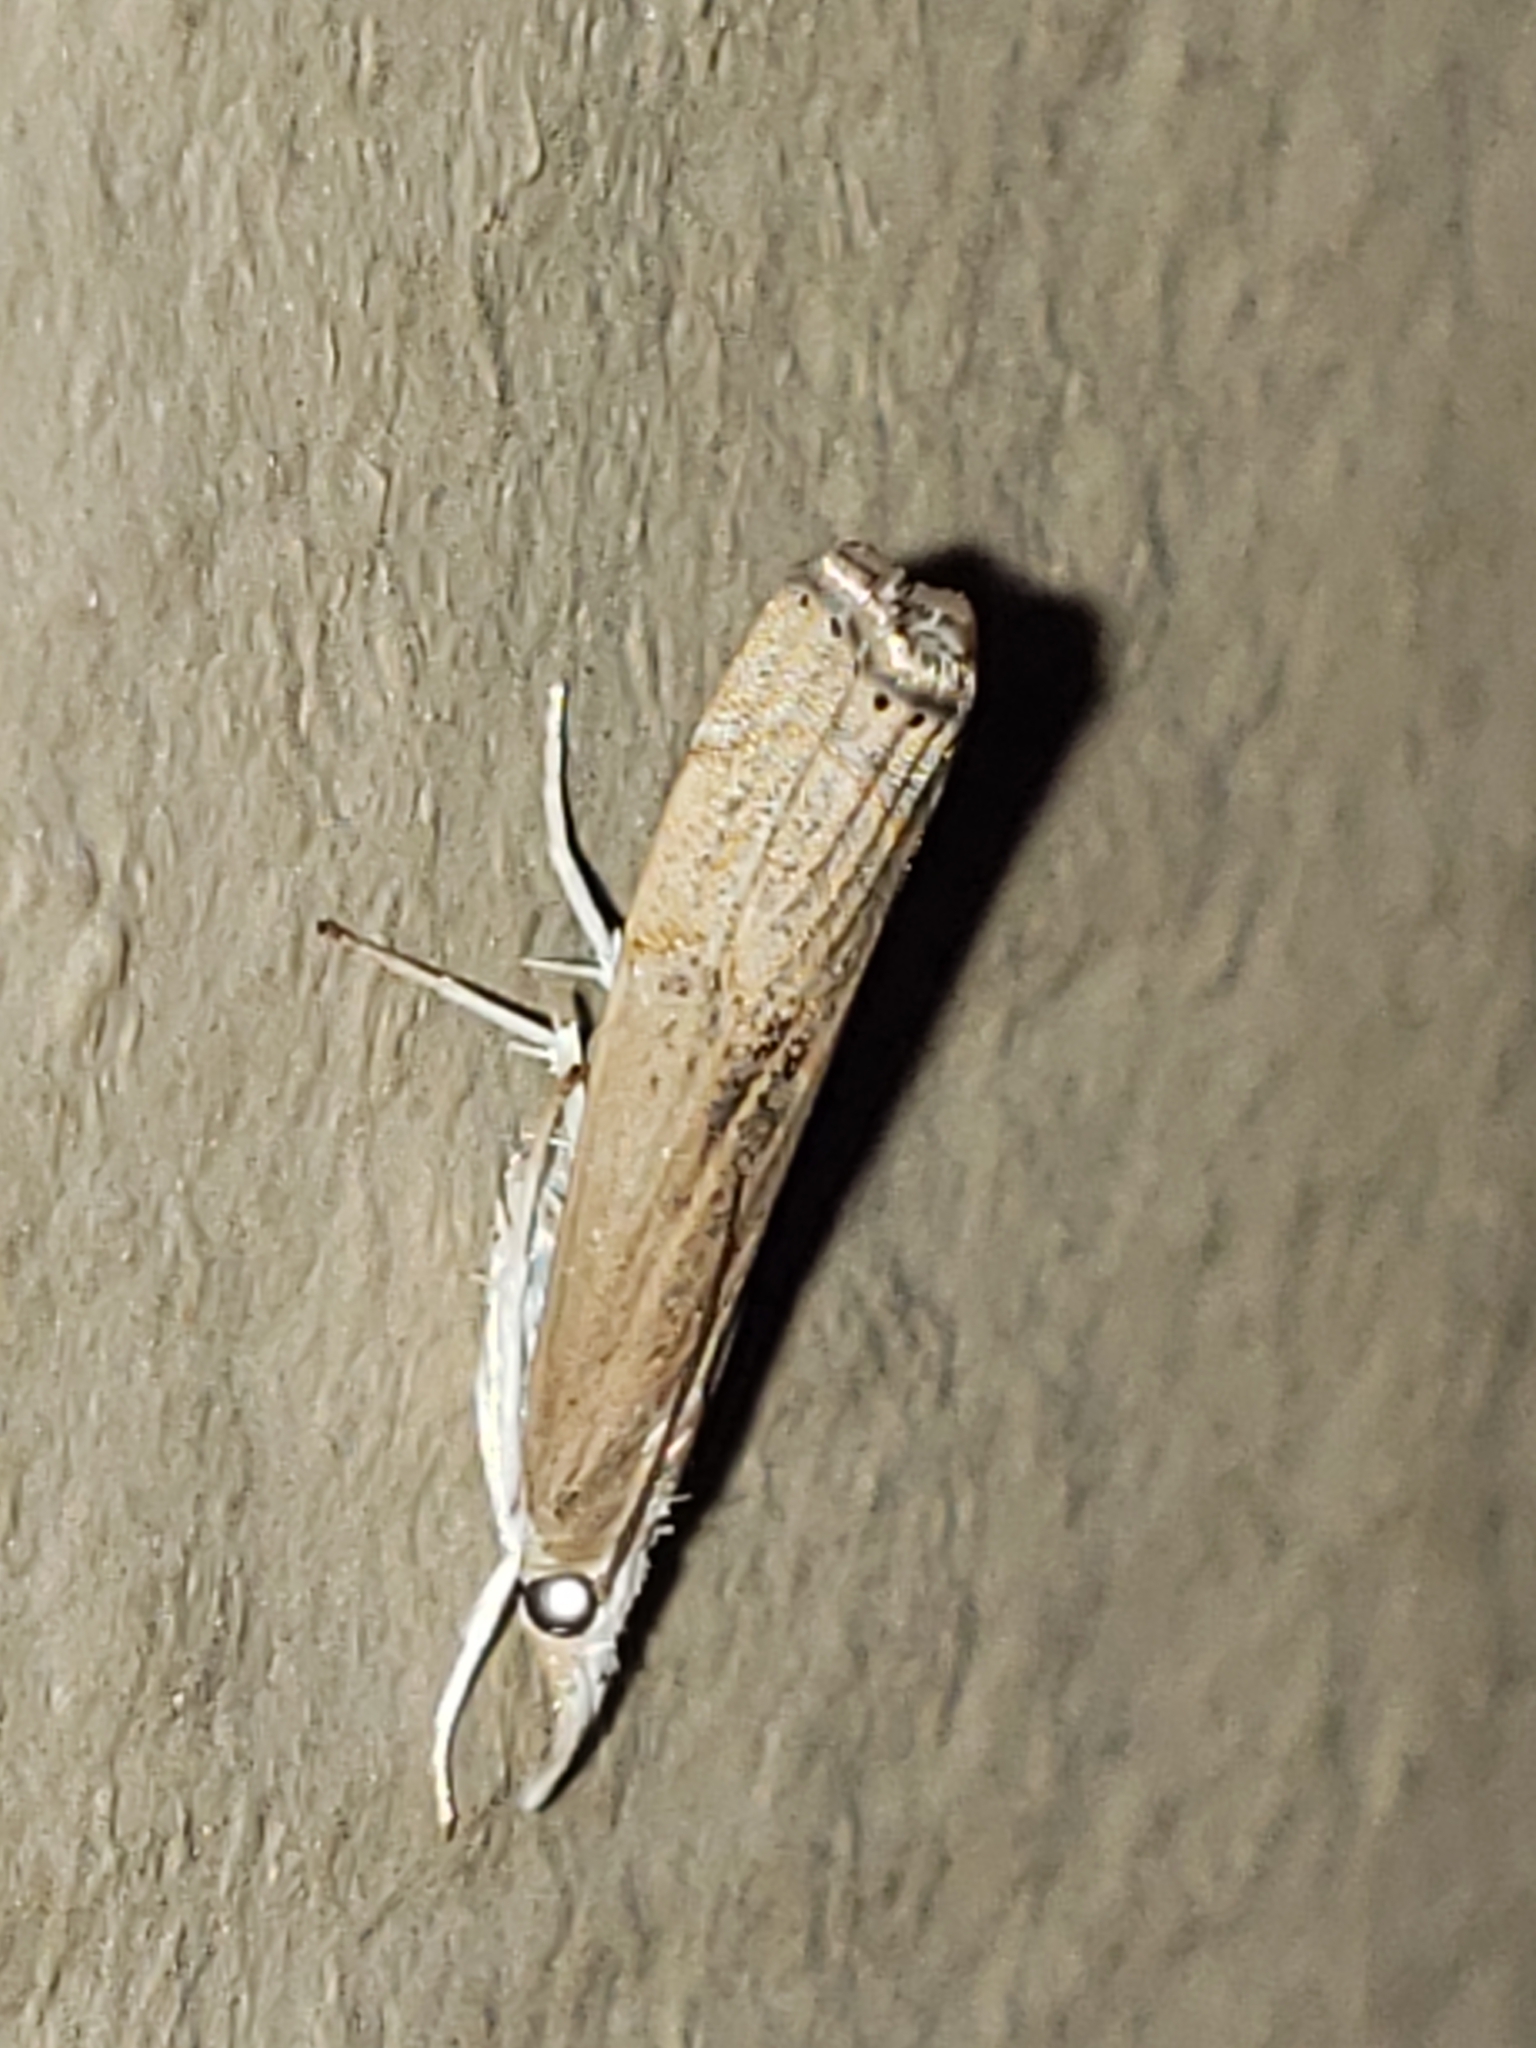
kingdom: Animalia
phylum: Arthropoda
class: Insecta
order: Lepidoptera
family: Crambidae
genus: Parapediasia
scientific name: Parapediasia teterellus
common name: Bluegrass webworm moth
